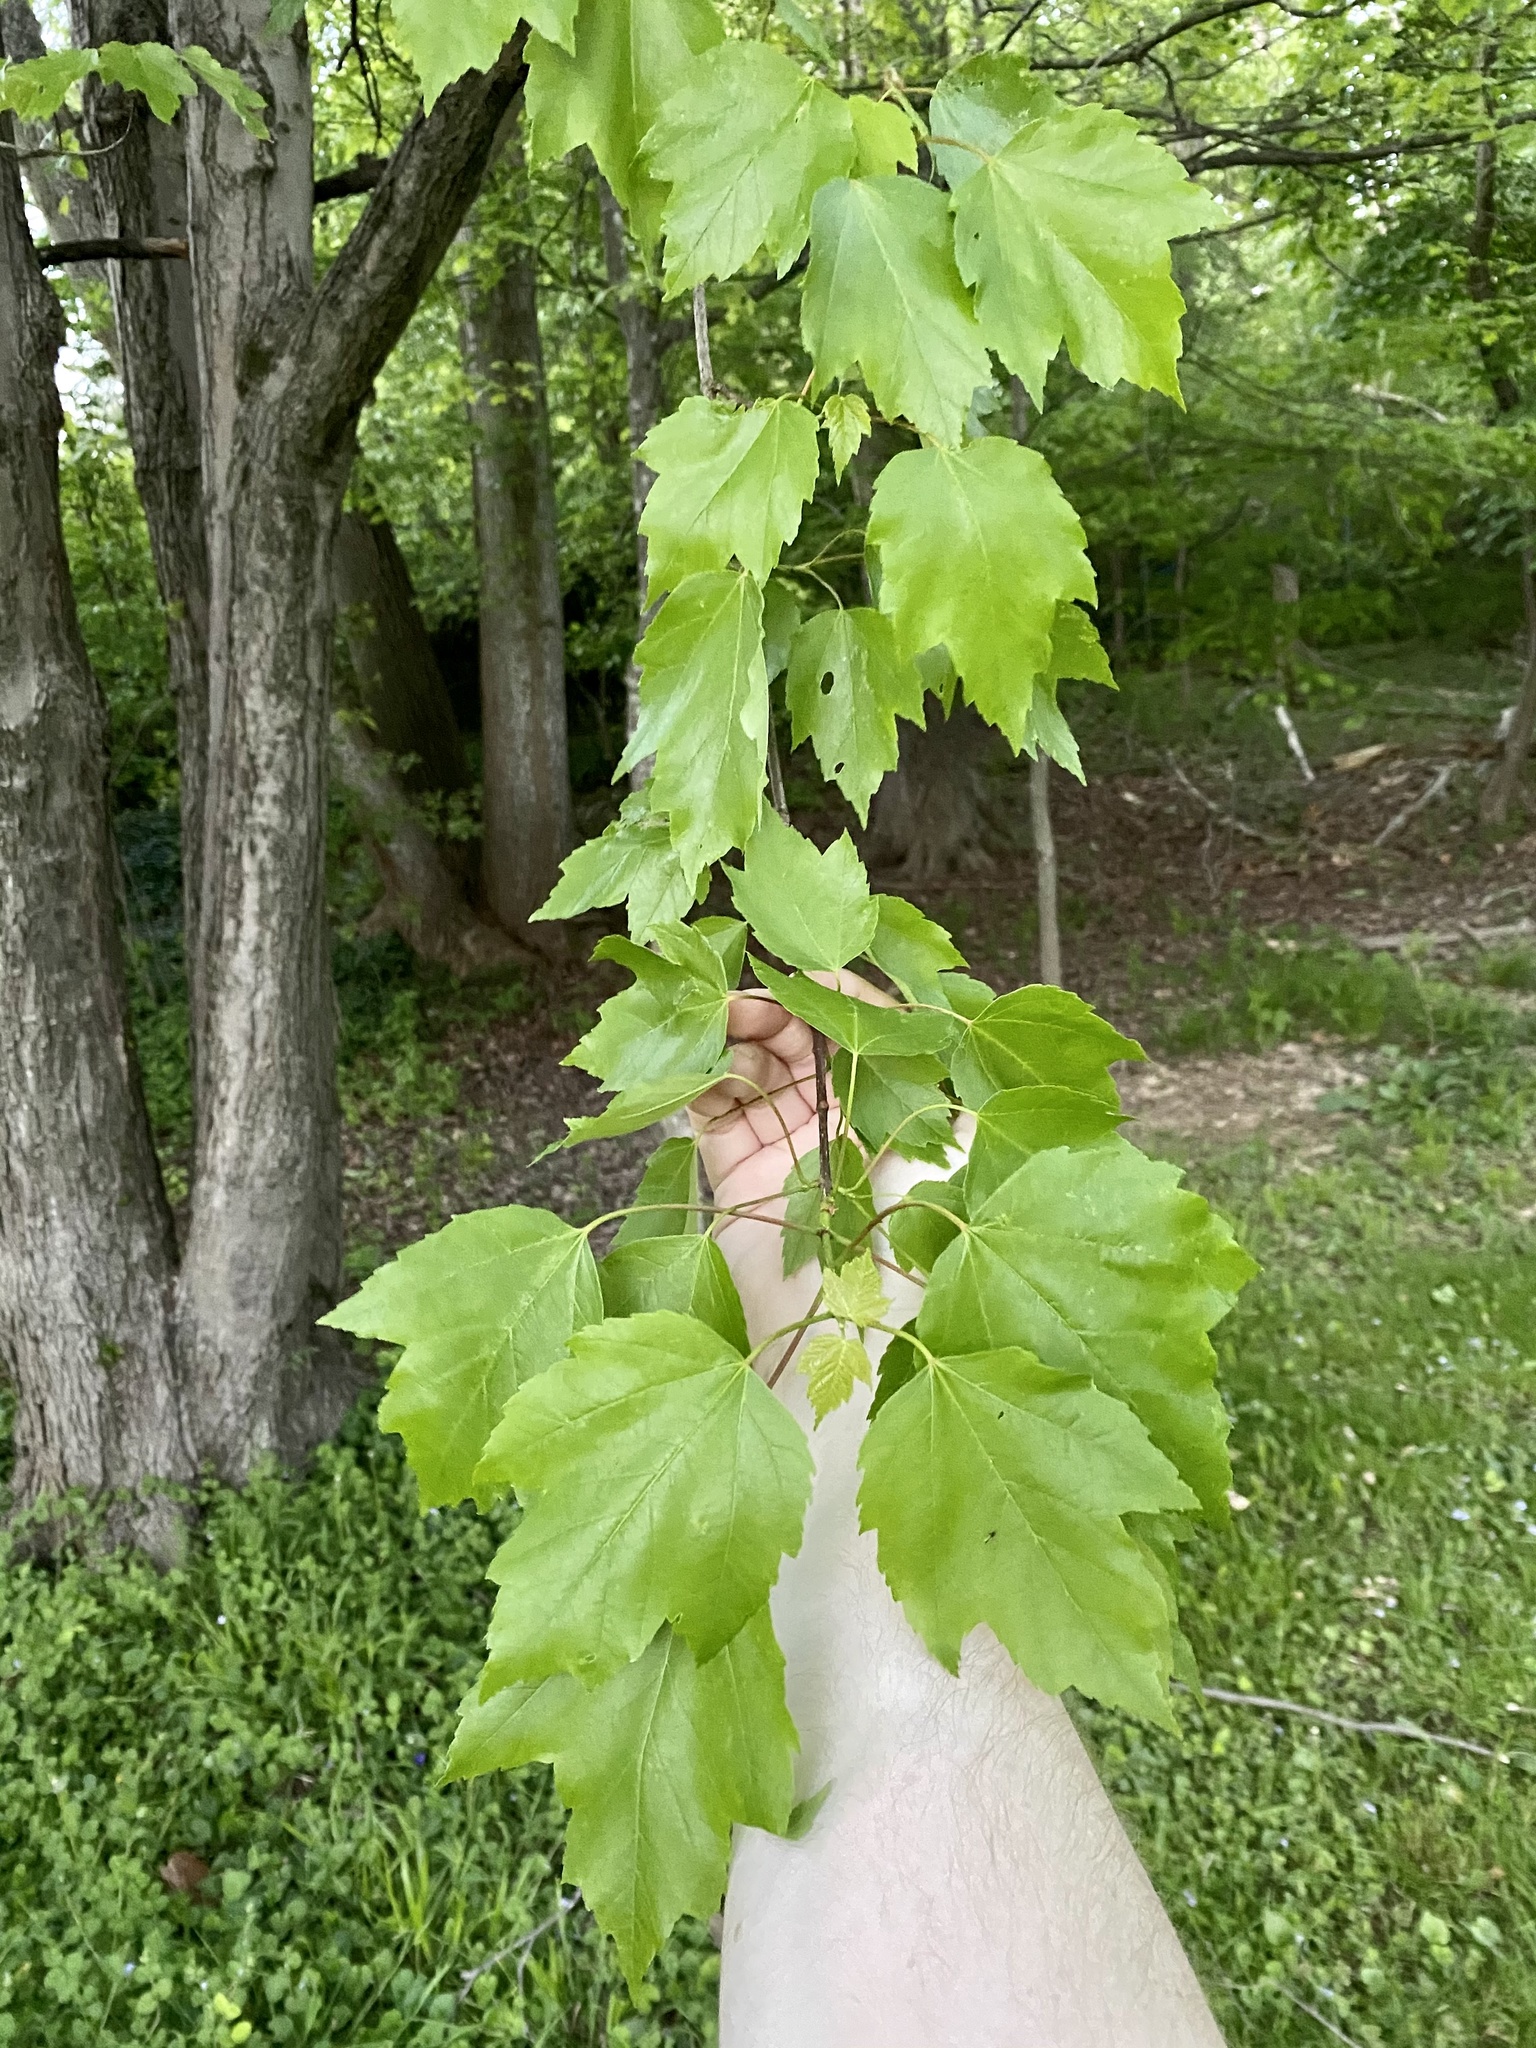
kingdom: Plantae
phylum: Tracheophyta
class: Magnoliopsida
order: Sapindales
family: Sapindaceae
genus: Acer
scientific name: Acer rubrum
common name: Red maple
